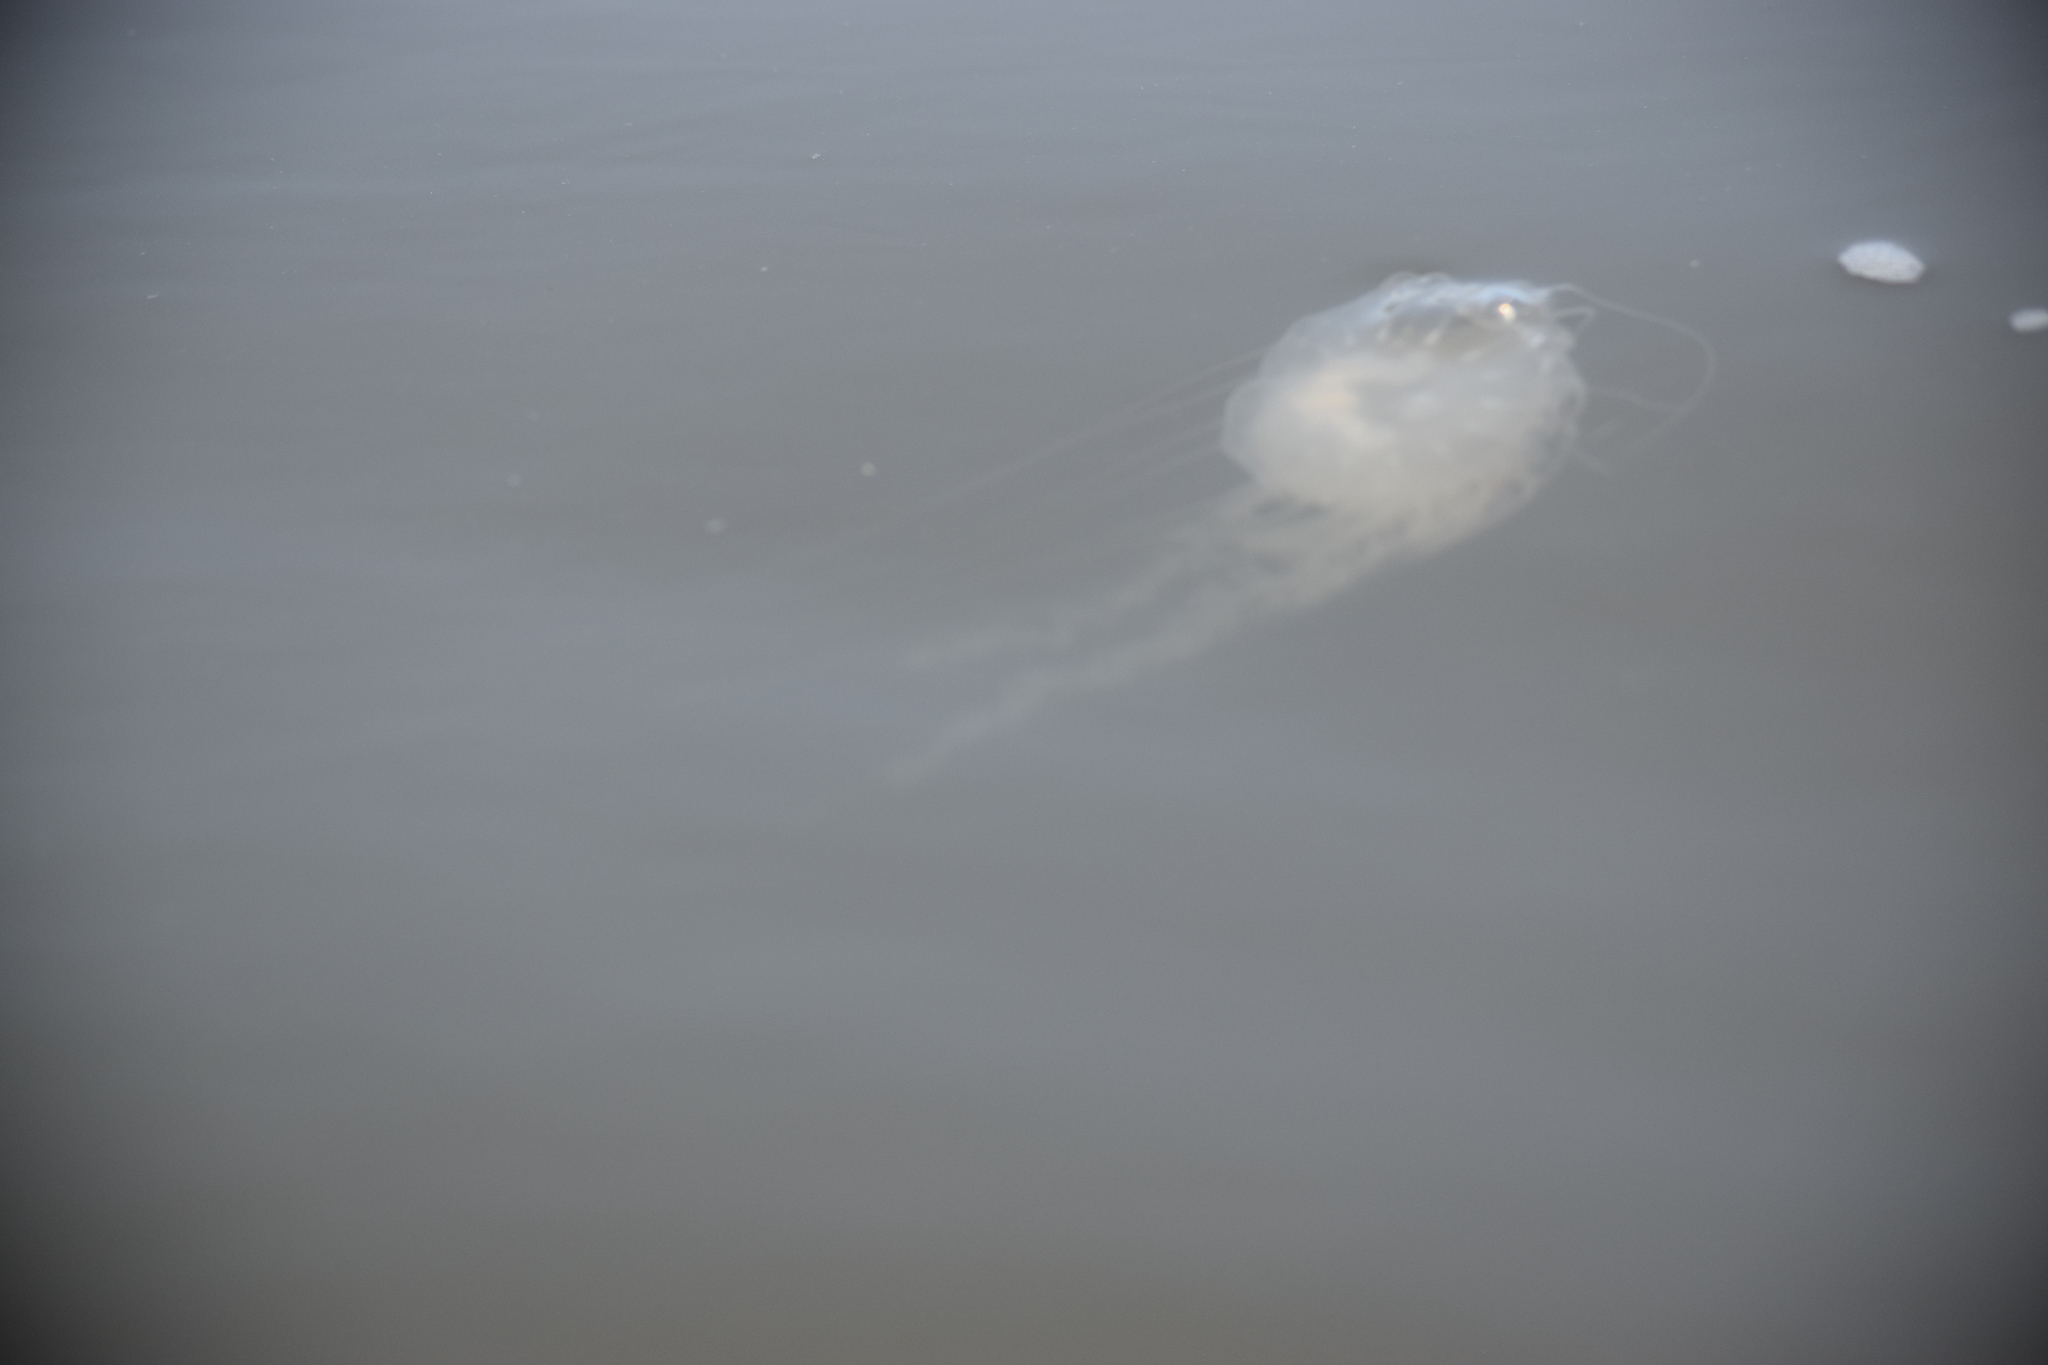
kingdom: Animalia
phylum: Cnidaria
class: Scyphozoa
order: Semaeostomeae
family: Pelagiidae
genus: Chrysaora
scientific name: Chrysaora chesapeakei
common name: Bay nettle
